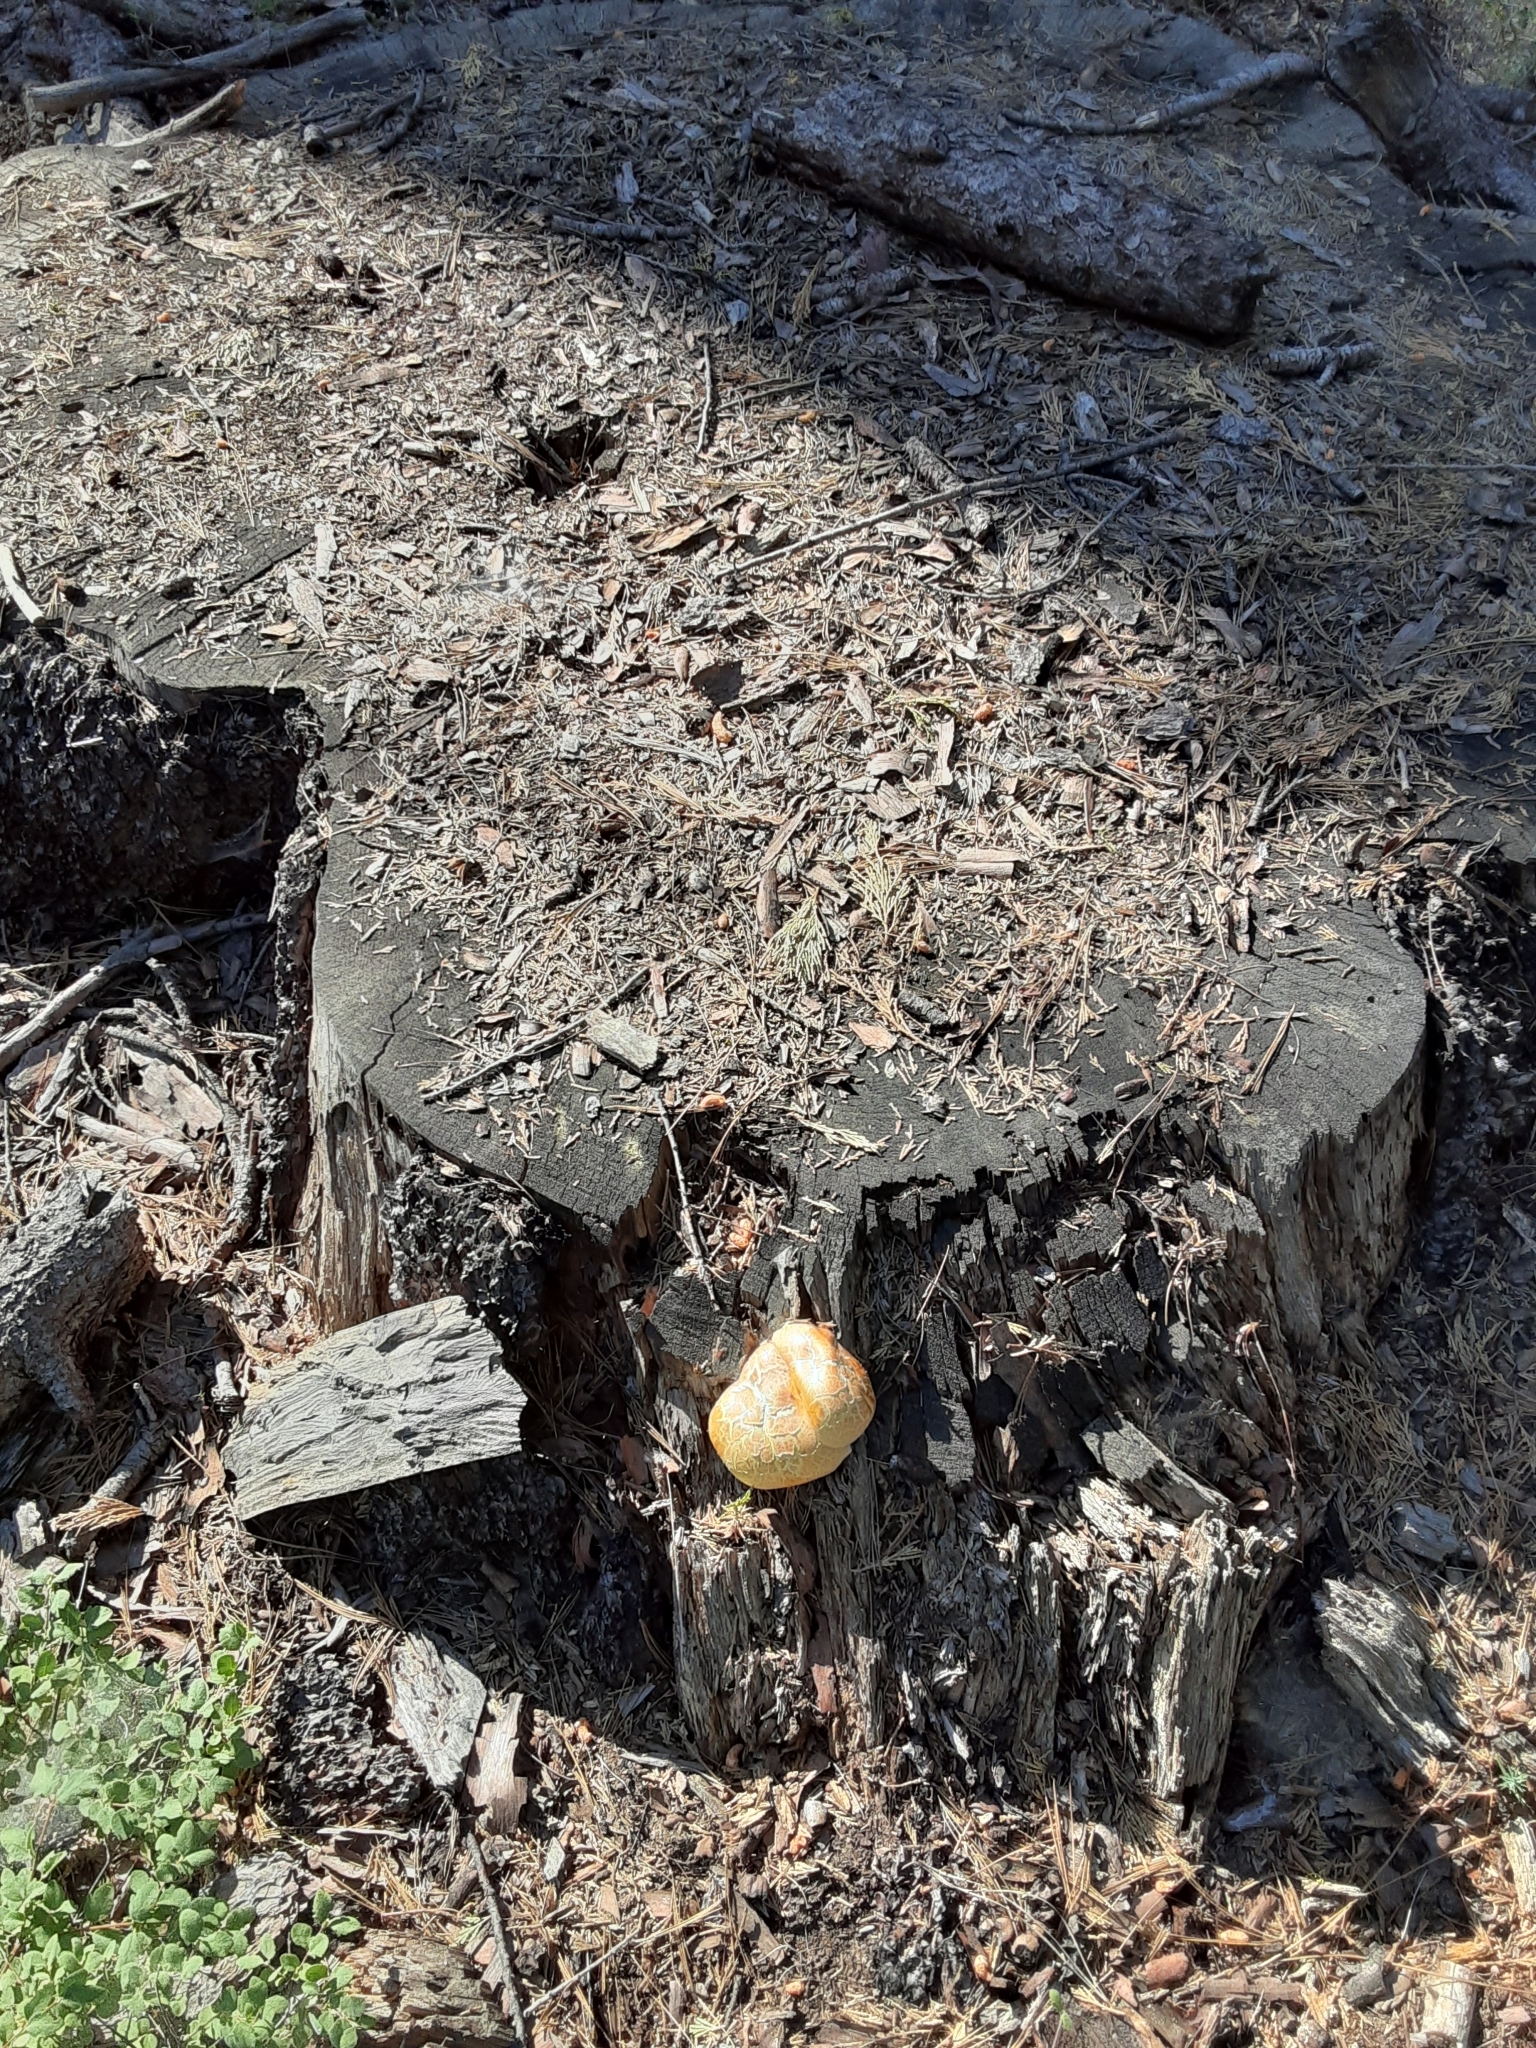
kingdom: Fungi
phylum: Basidiomycota
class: Agaricomycetes
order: Gloeophyllales
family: Gloeophyllaceae
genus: Neolentinus
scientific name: Neolentinus ponderosus
